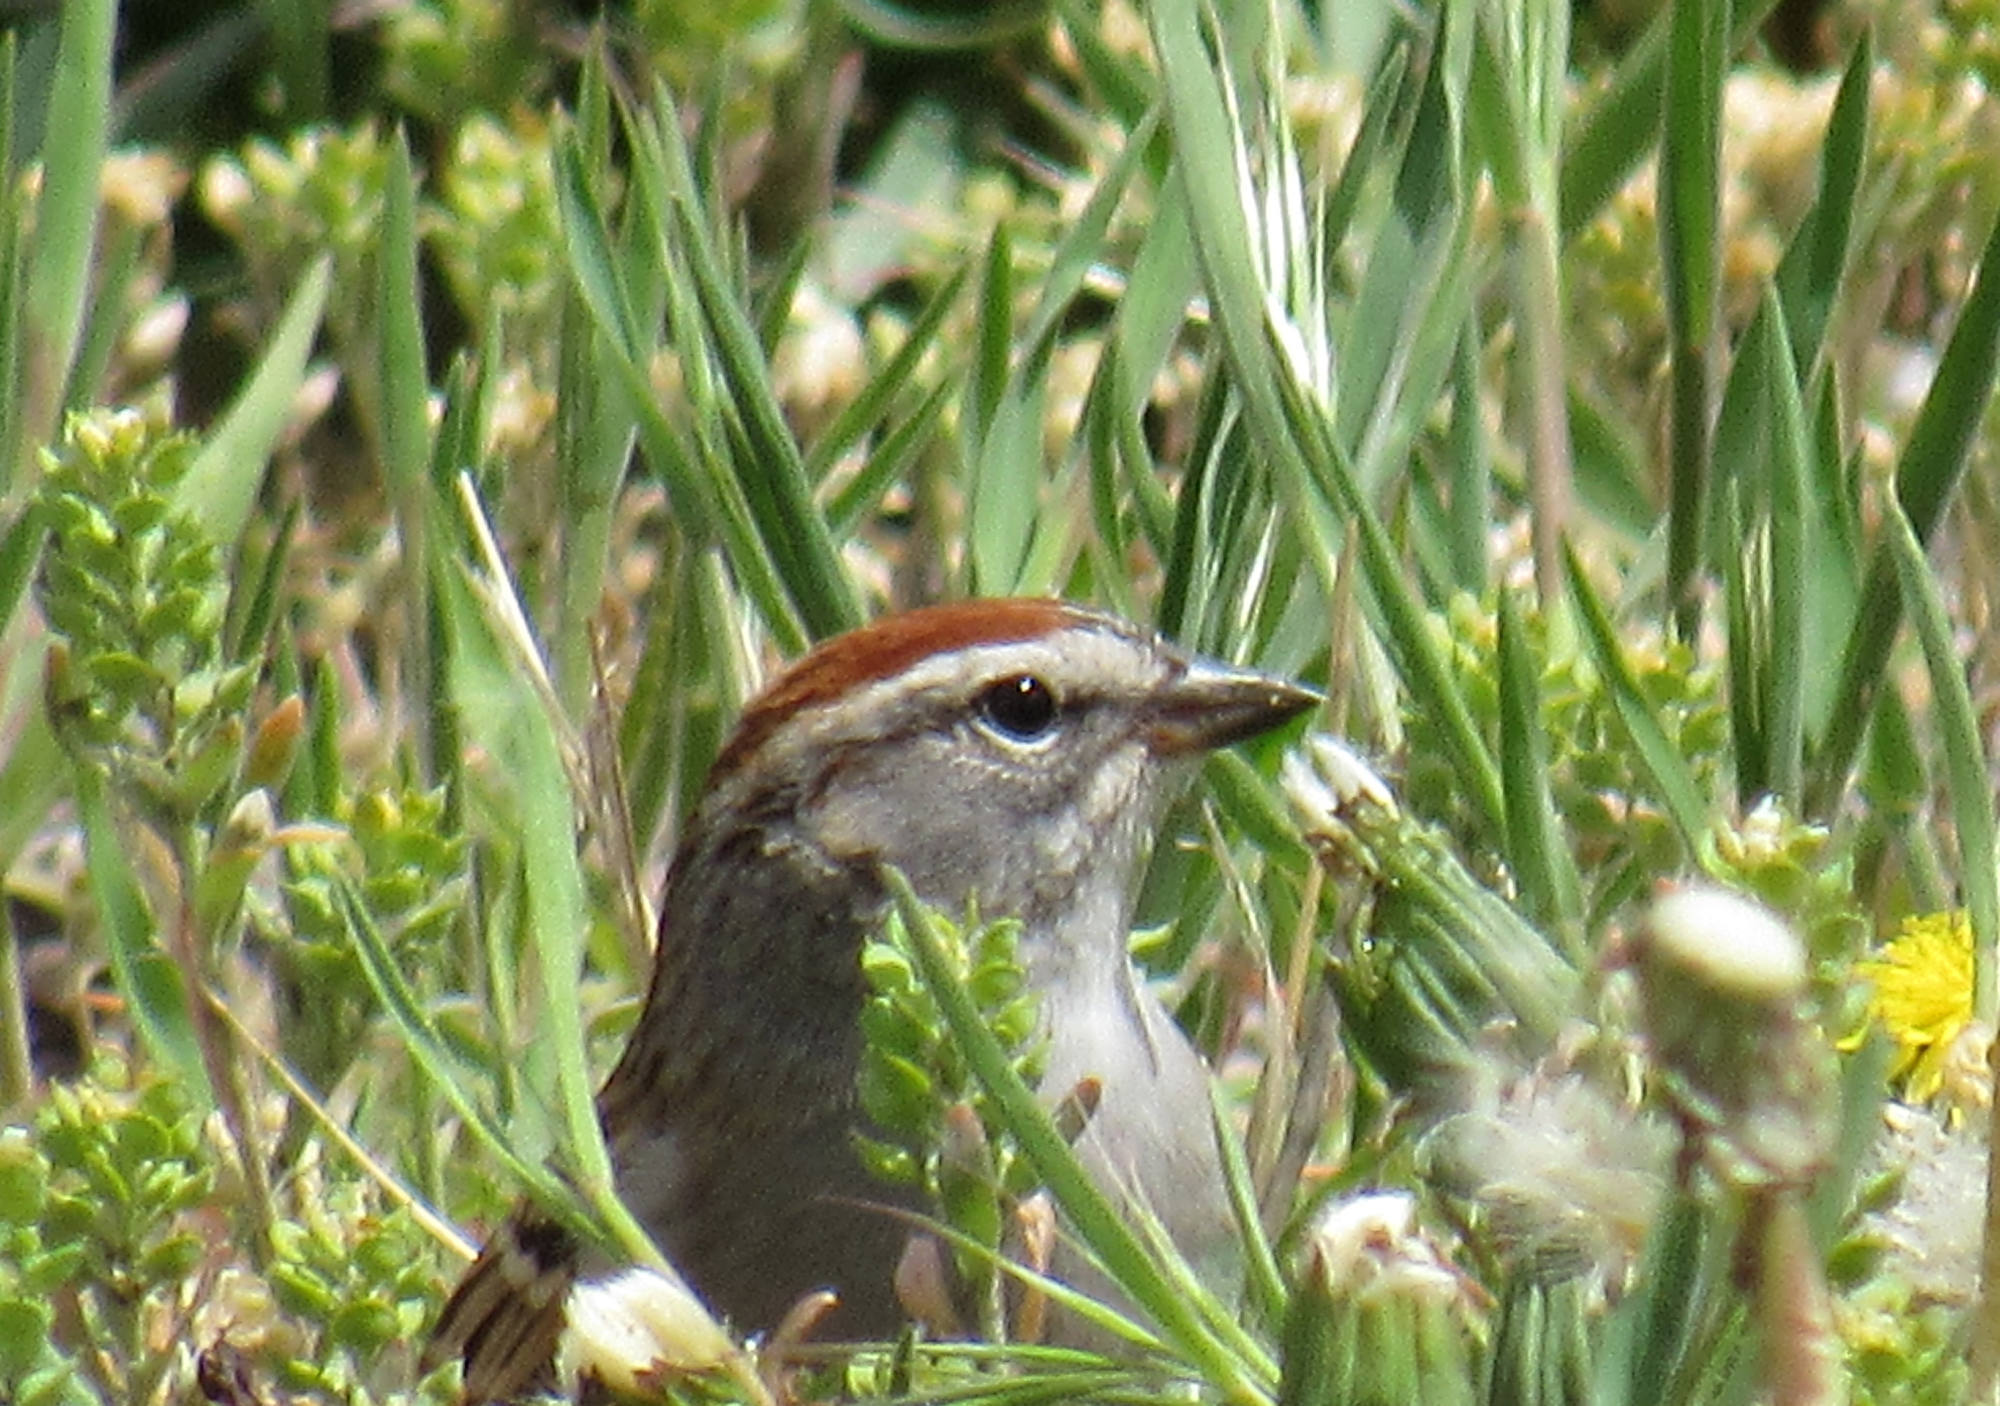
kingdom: Animalia
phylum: Chordata
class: Aves
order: Passeriformes
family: Passerellidae
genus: Spizella
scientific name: Spizella passerina
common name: Chipping sparrow
